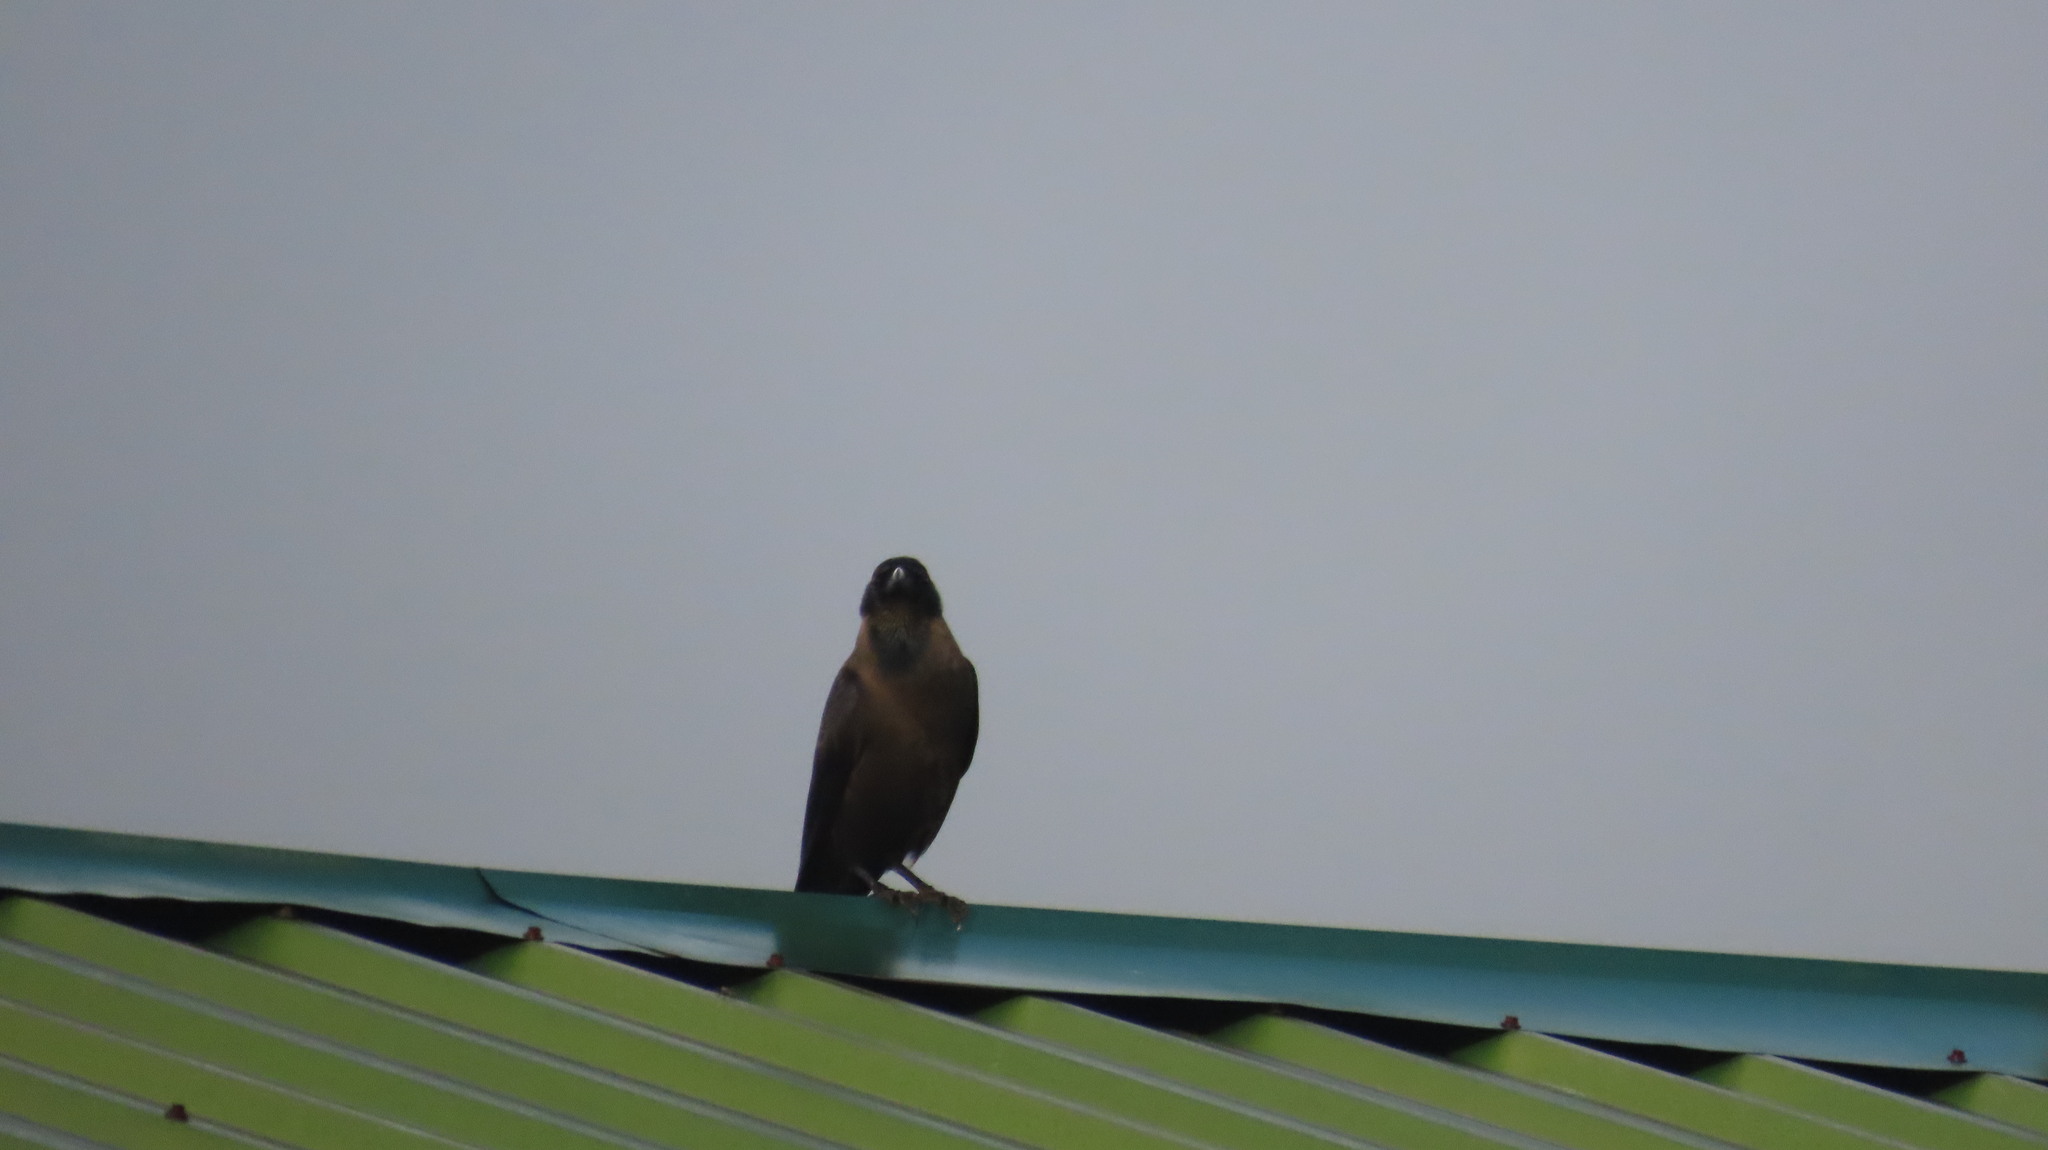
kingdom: Animalia
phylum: Chordata
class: Aves
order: Passeriformes
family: Corvidae
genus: Corvus
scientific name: Corvus splendens
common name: House crow
